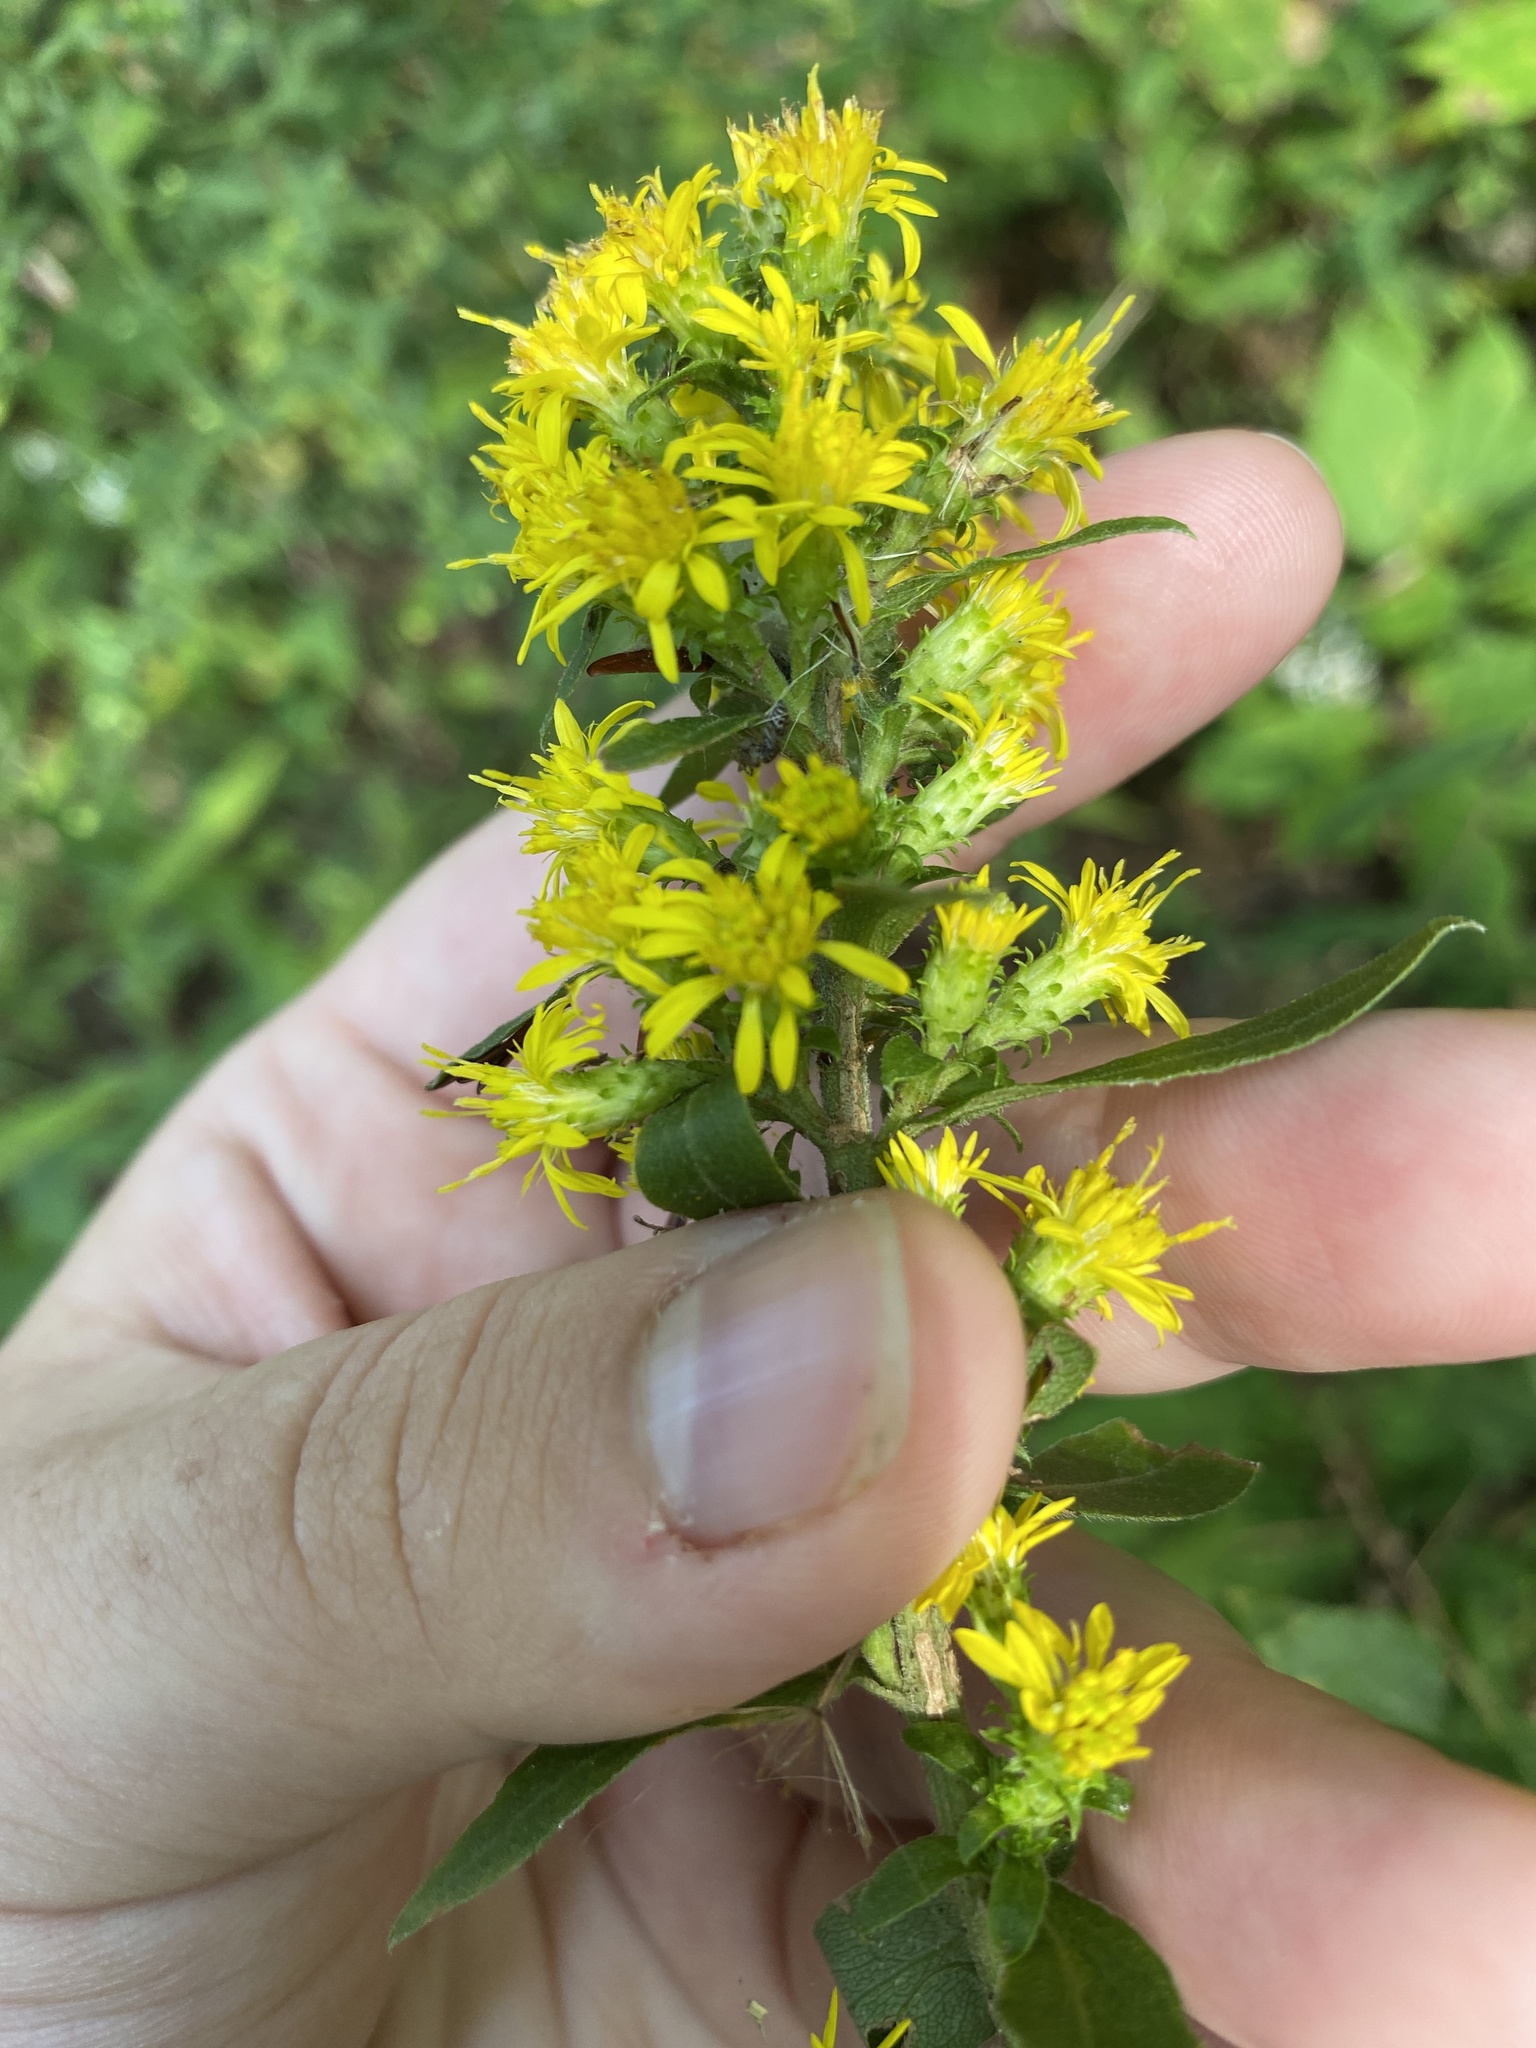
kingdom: Plantae
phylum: Tracheophyta
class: Magnoliopsida
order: Asterales
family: Asteraceae
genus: Solidago
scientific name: Solidago squarrosa
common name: Stout goldenrod
